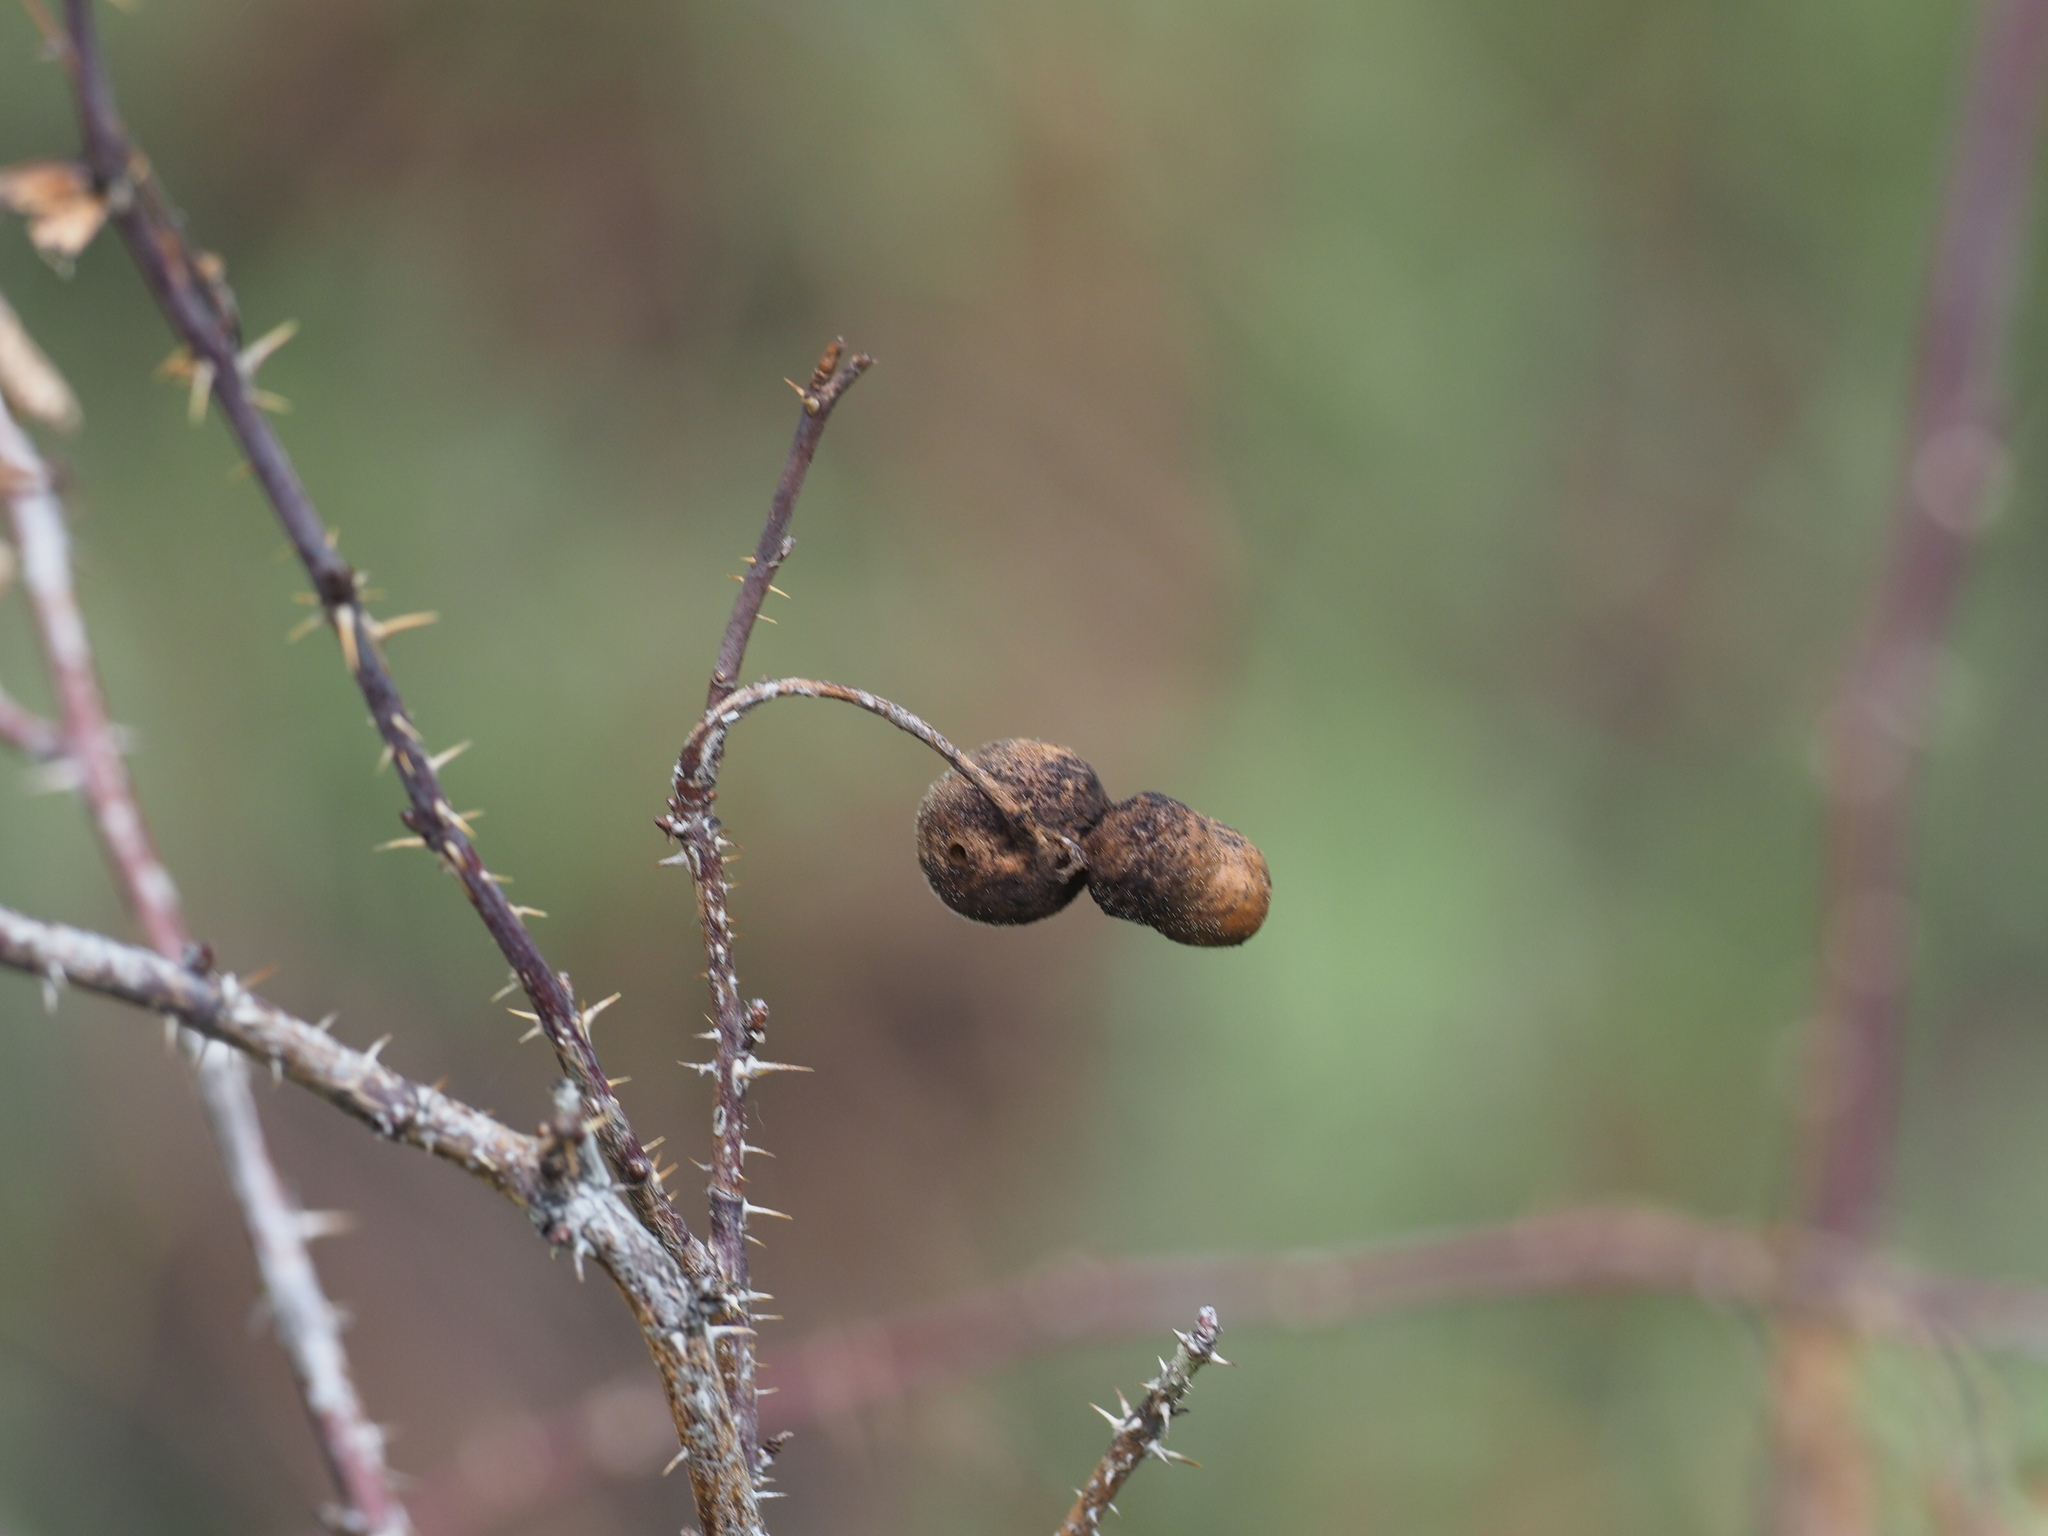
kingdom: Animalia
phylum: Arthropoda
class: Insecta
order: Hymenoptera
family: Cynipidae
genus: Diplolepis
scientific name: Diplolepis variabilis
